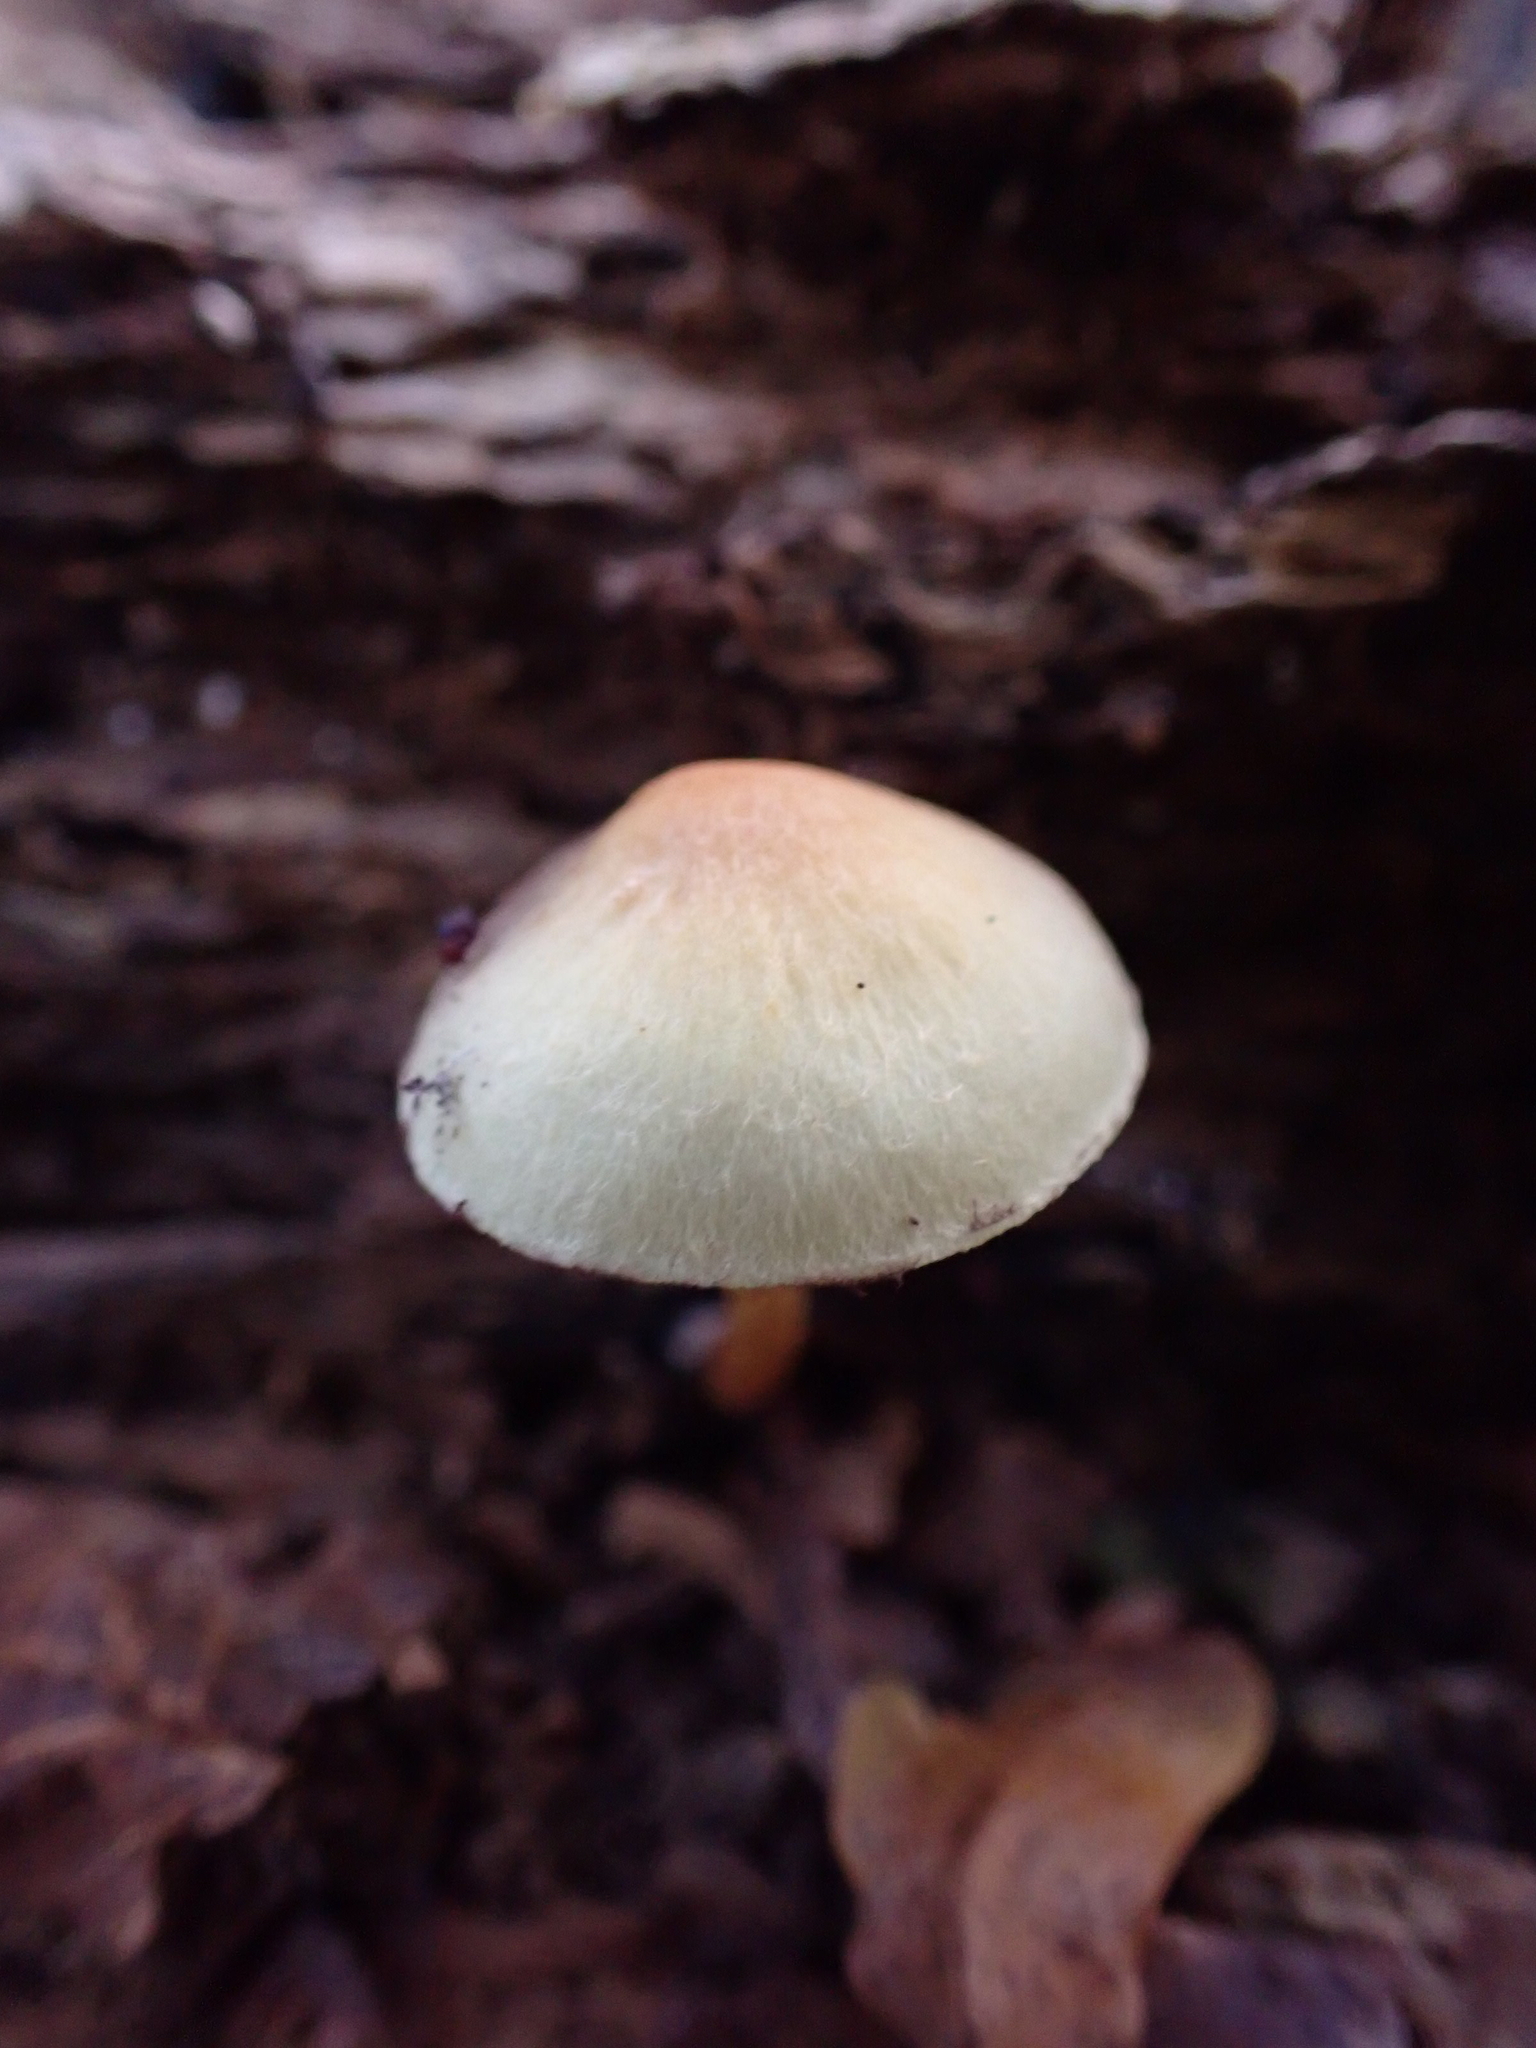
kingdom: Fungi
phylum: Basidiomycota
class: Agaricomycetes
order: Agaricales
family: Strophariaceae
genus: Hypholoma
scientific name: Hypholoma fasciculare
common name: Sulphur tuft
